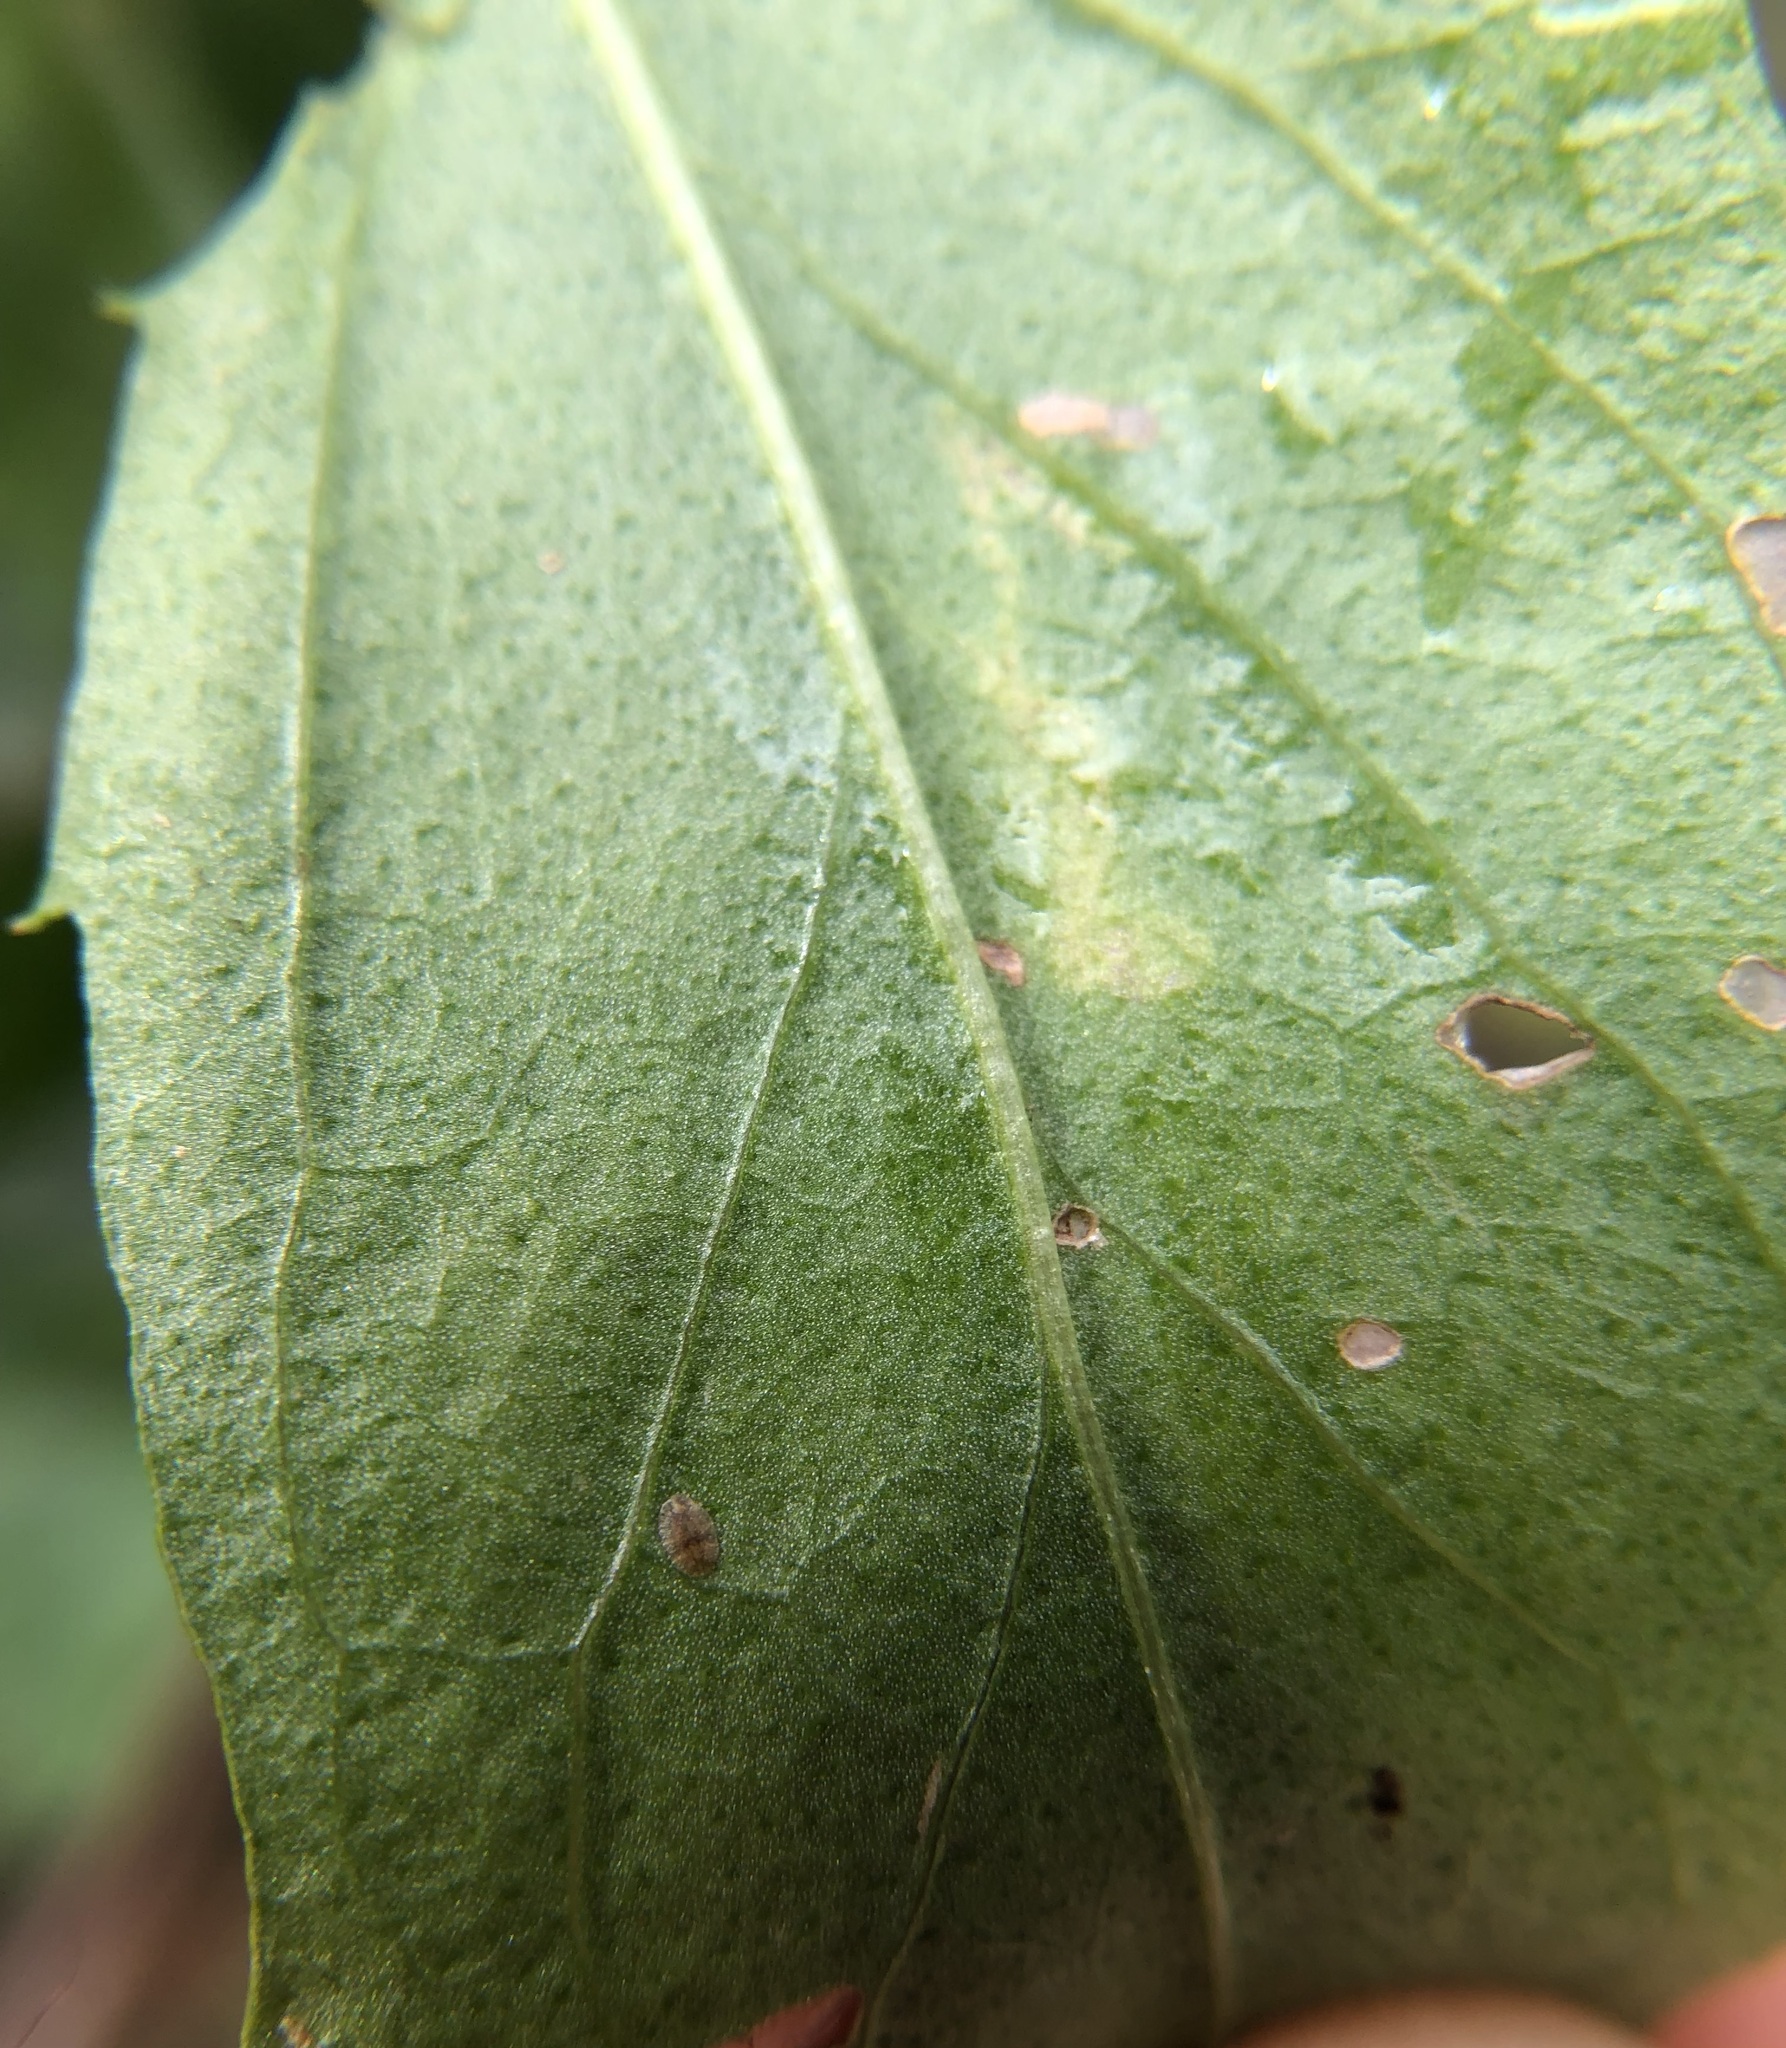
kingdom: Animalia
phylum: Arthropoda
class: Insecta
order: Lepidoptera
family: Bucculatricidae
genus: Bucculatrix
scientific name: Bucculatrix ivella
